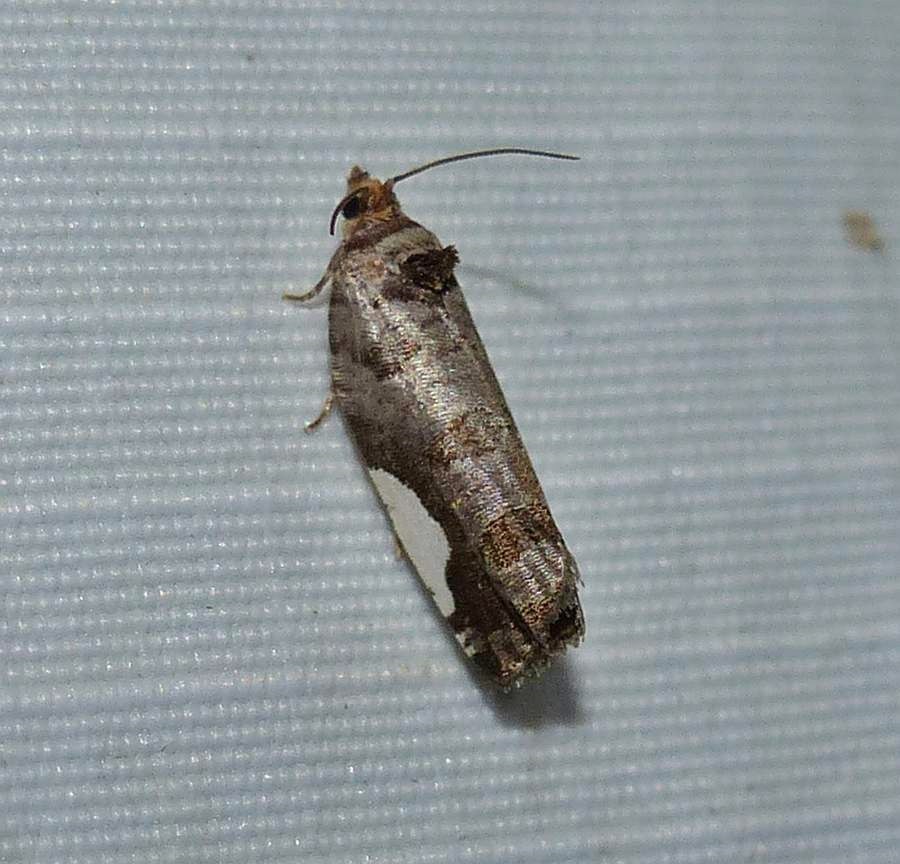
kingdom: Animalia
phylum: Arthropoda
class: Insecta
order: Lepidoptera
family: Tortricidae
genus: Hedya
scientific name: Hedya chionosema
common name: White-spotted hedya moth
